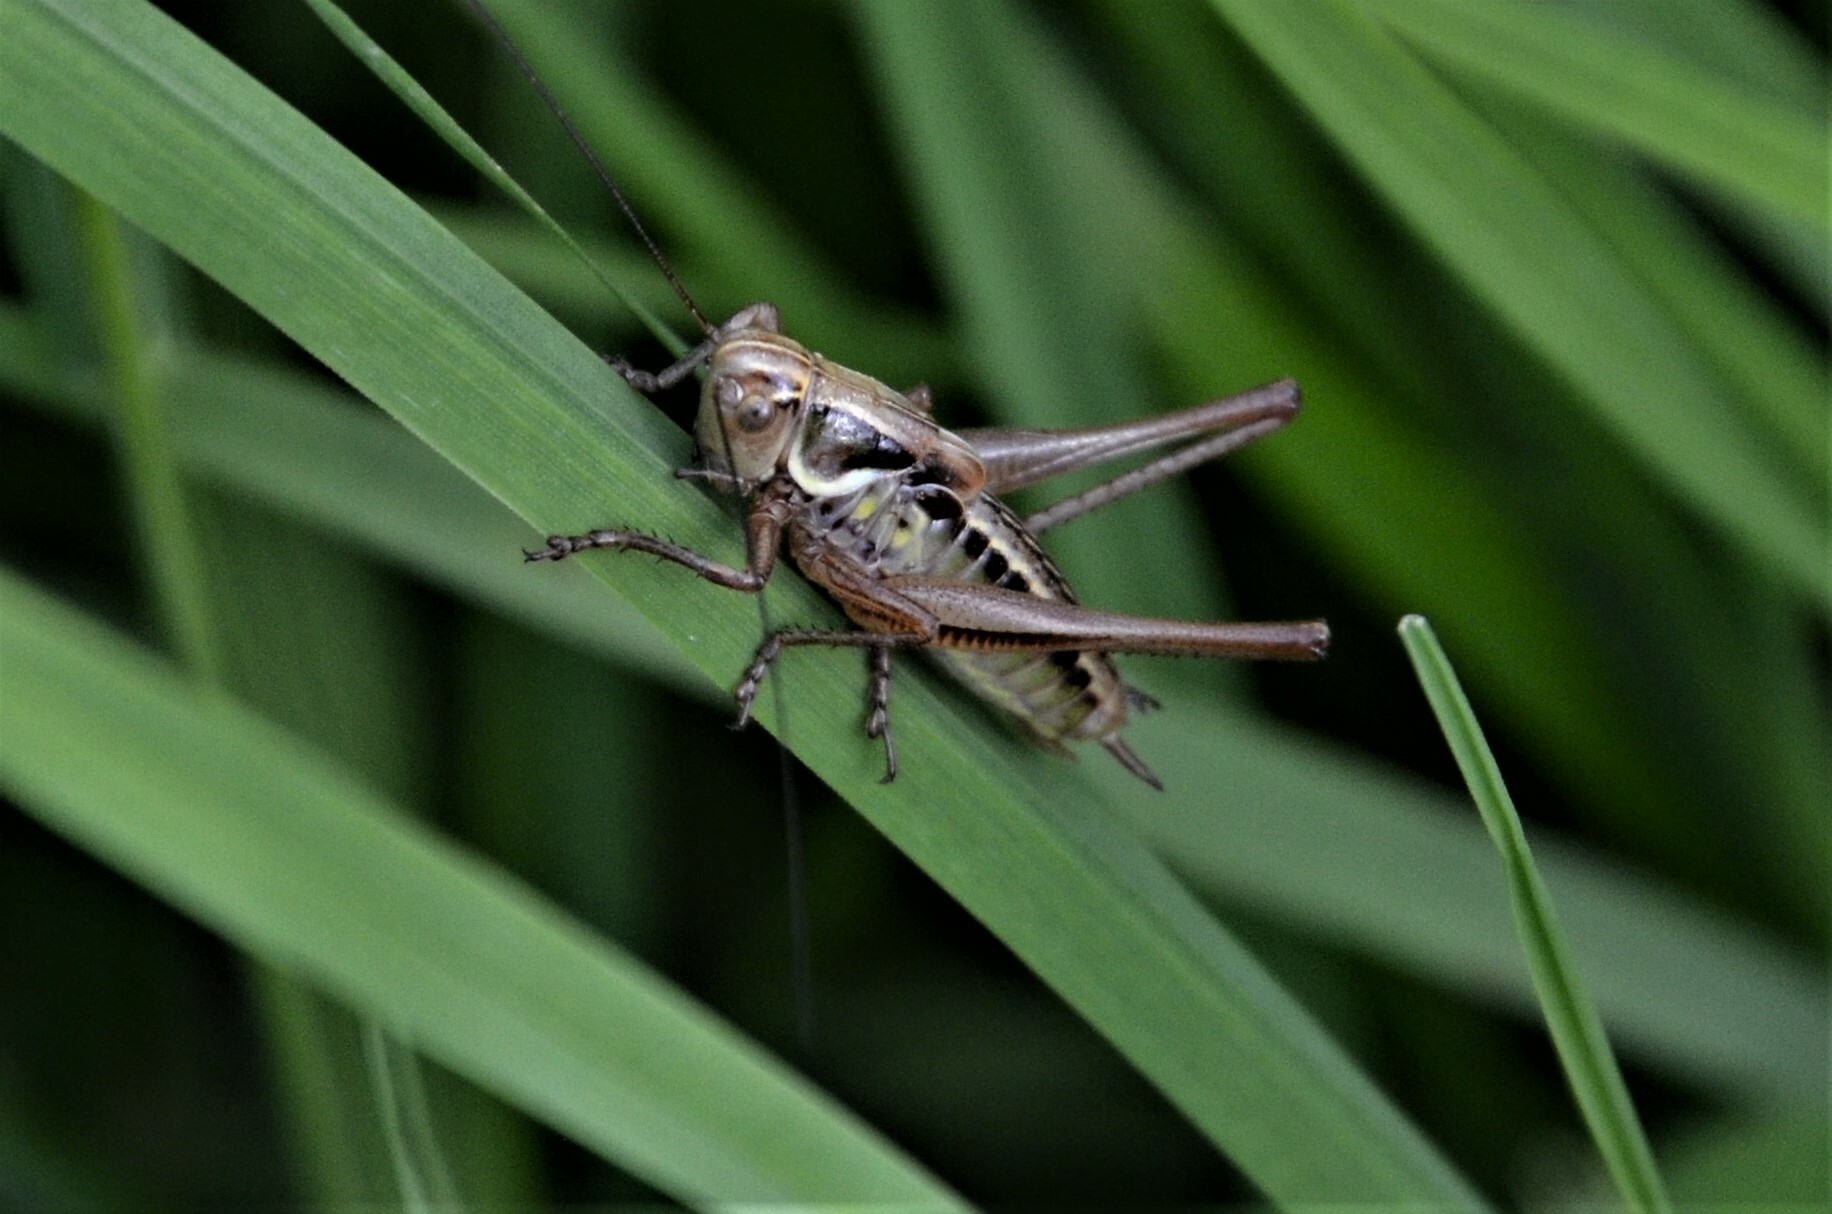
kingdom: Animalia
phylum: Arthropoda
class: Insecta
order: Orthoptera
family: Tettigoniidae
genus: Roeseliana
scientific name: Roeseliana roeselii
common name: Roesel's bush cricket
